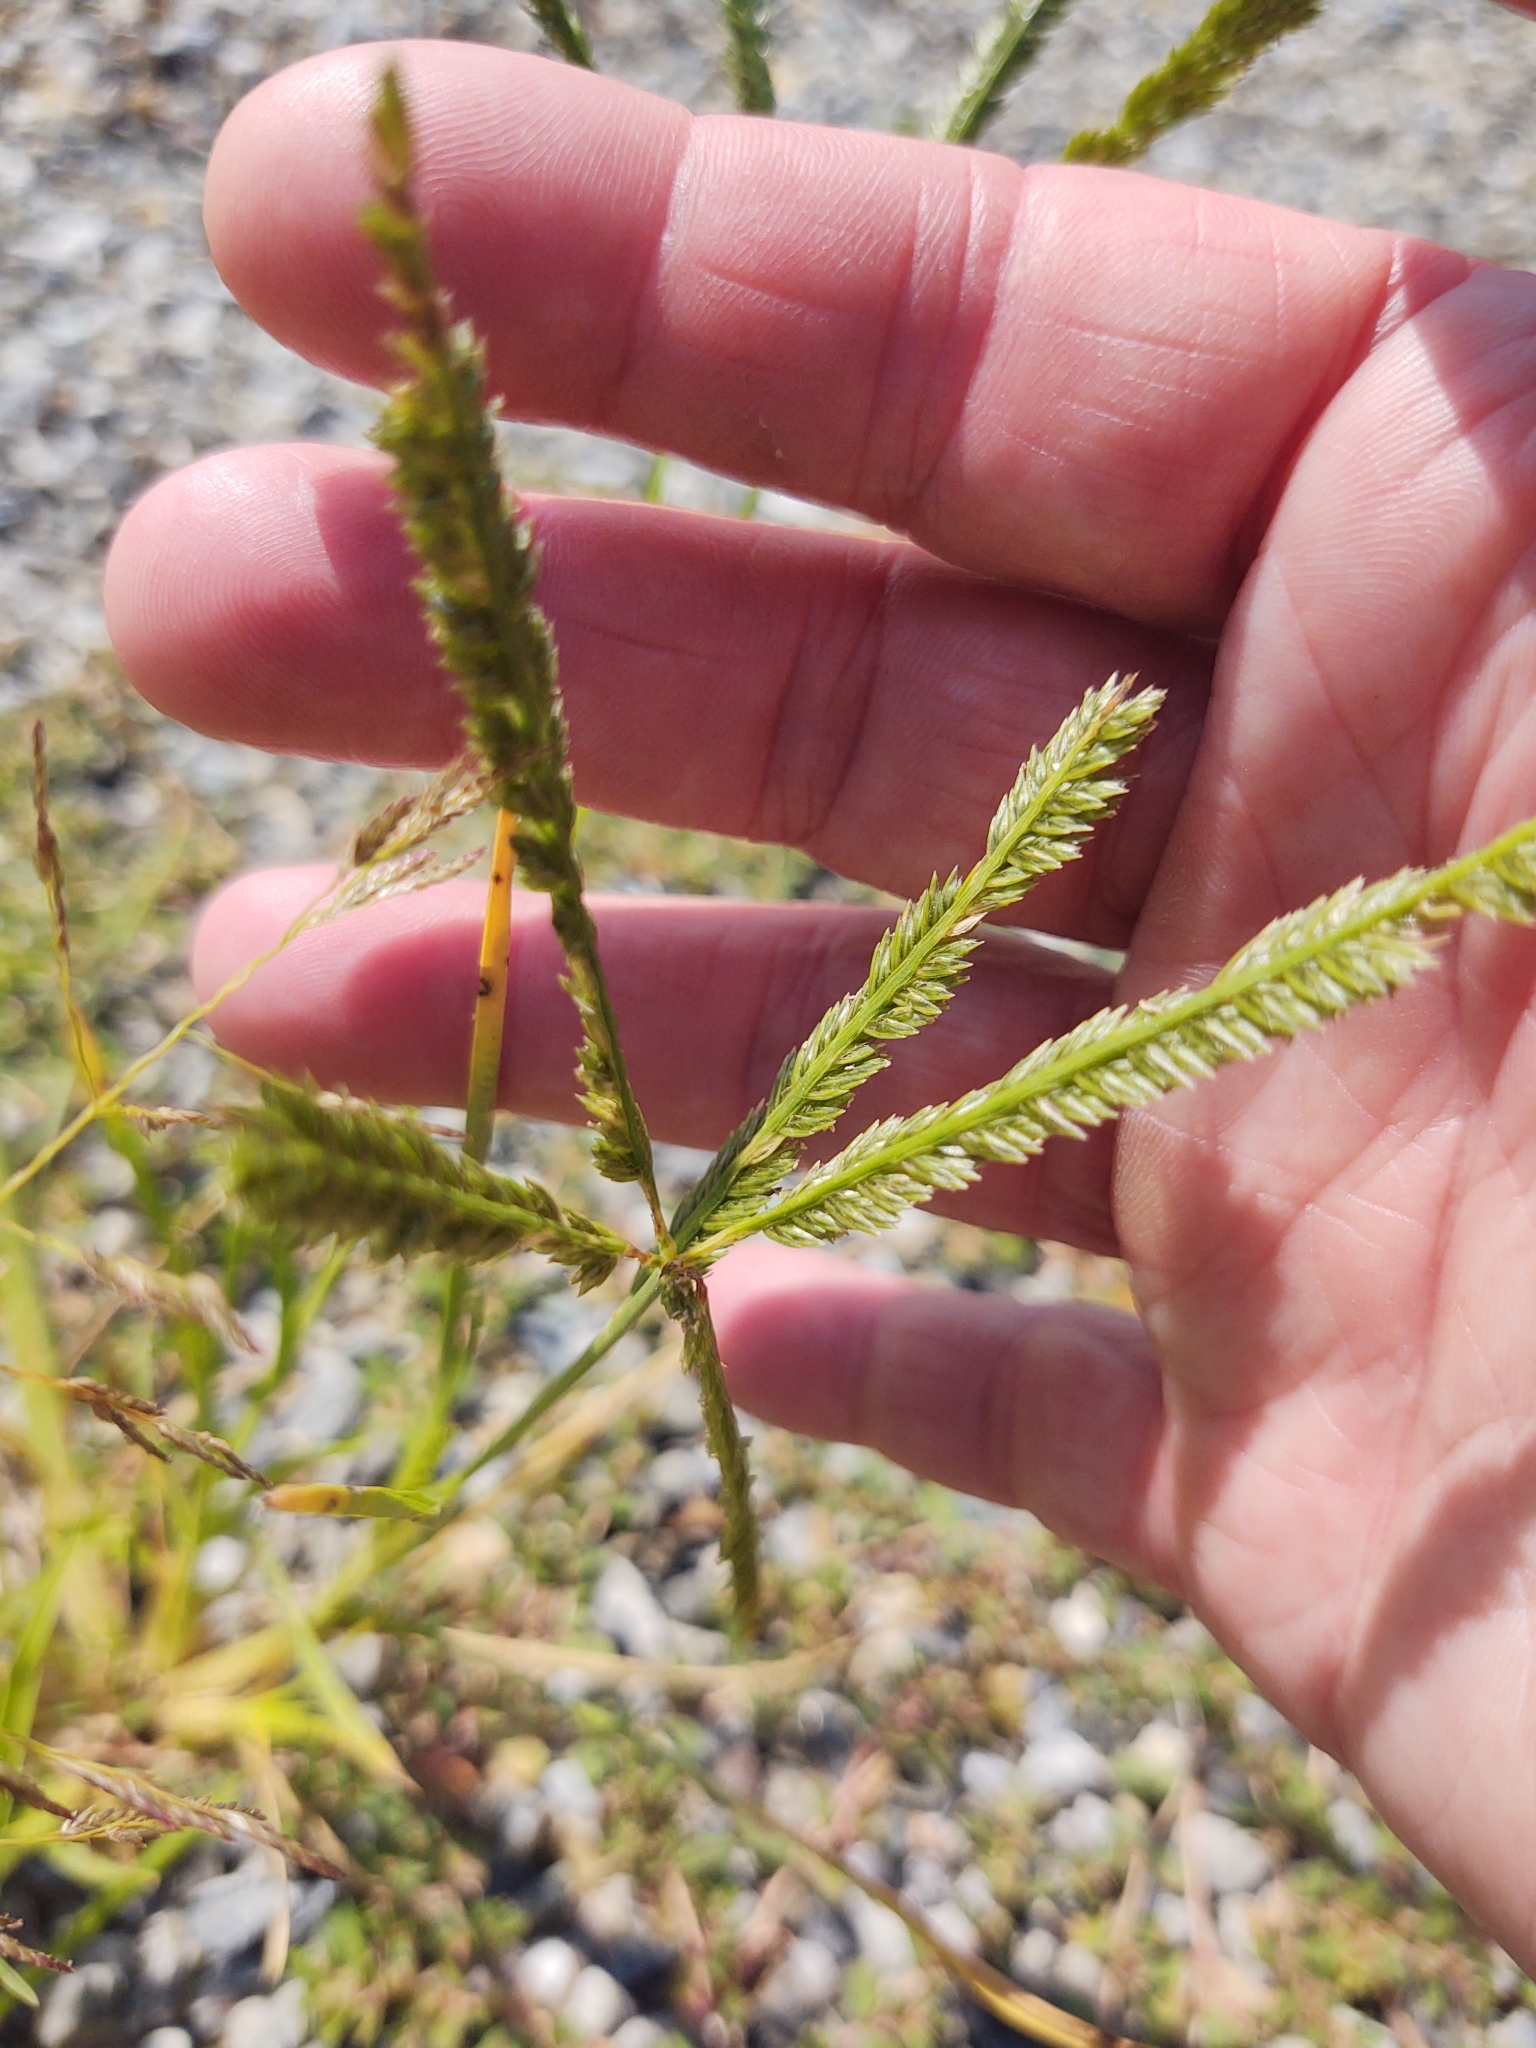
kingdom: Plantae
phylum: Tracheophyta
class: Liliopsida
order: Poales
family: Poaceae
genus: Eleusine
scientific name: Eleusine indica
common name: Yard-grass
